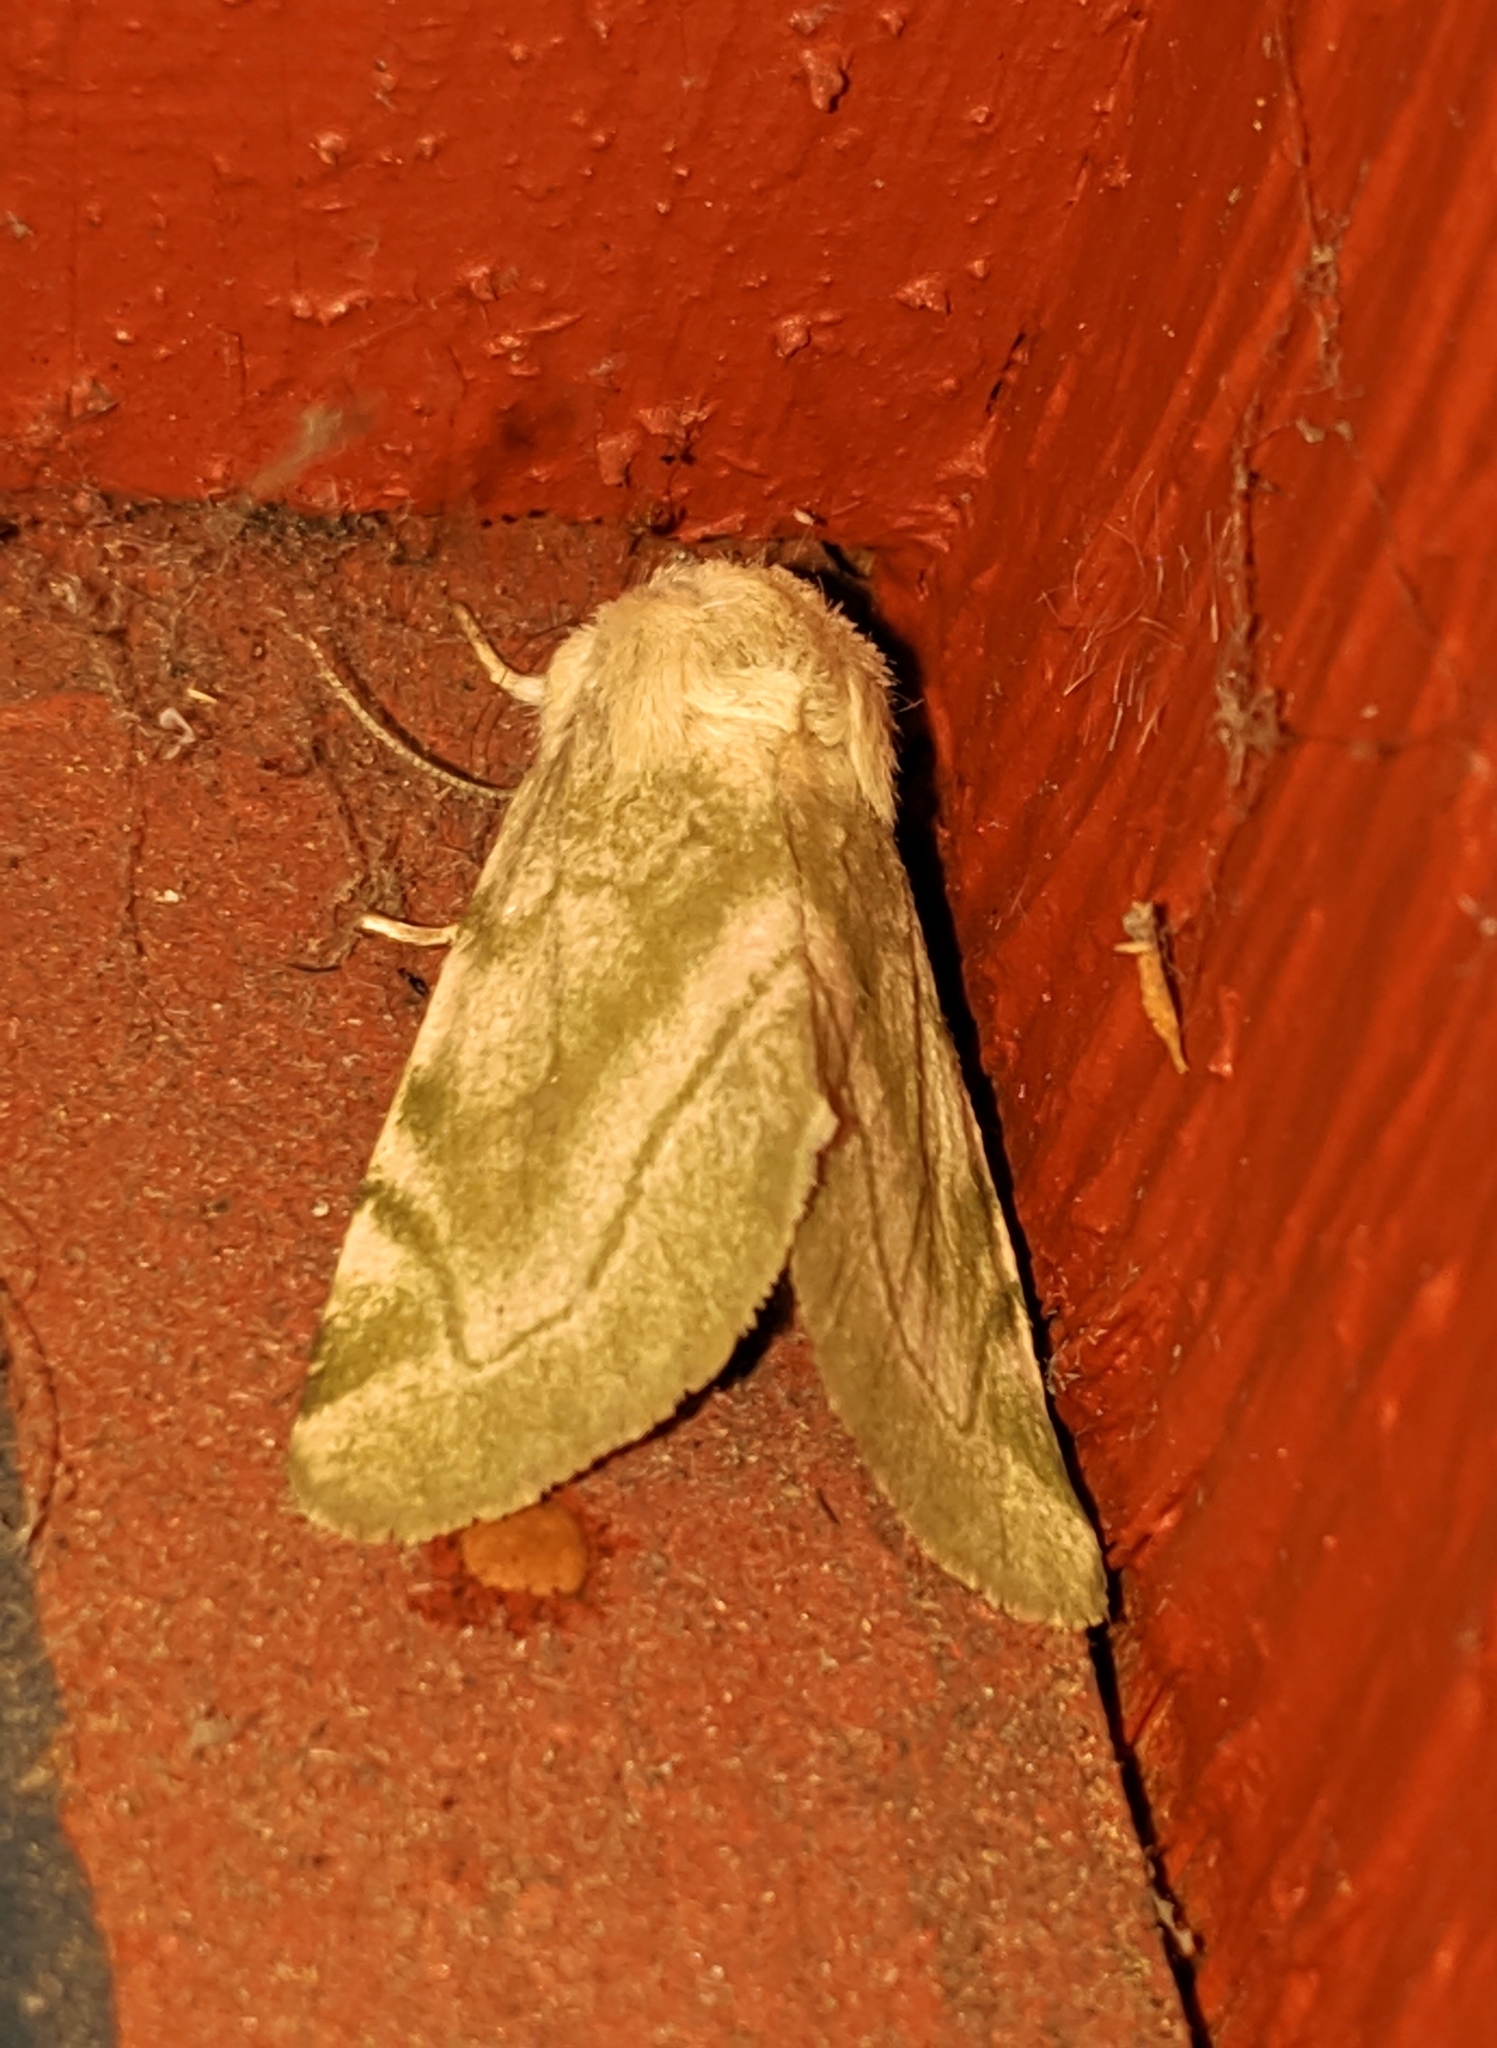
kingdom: Animalia
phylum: Arthropoda
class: Insecta
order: Lepidoptera
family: Noctuidae
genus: Zotheca
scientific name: Zotheca tranquilla
